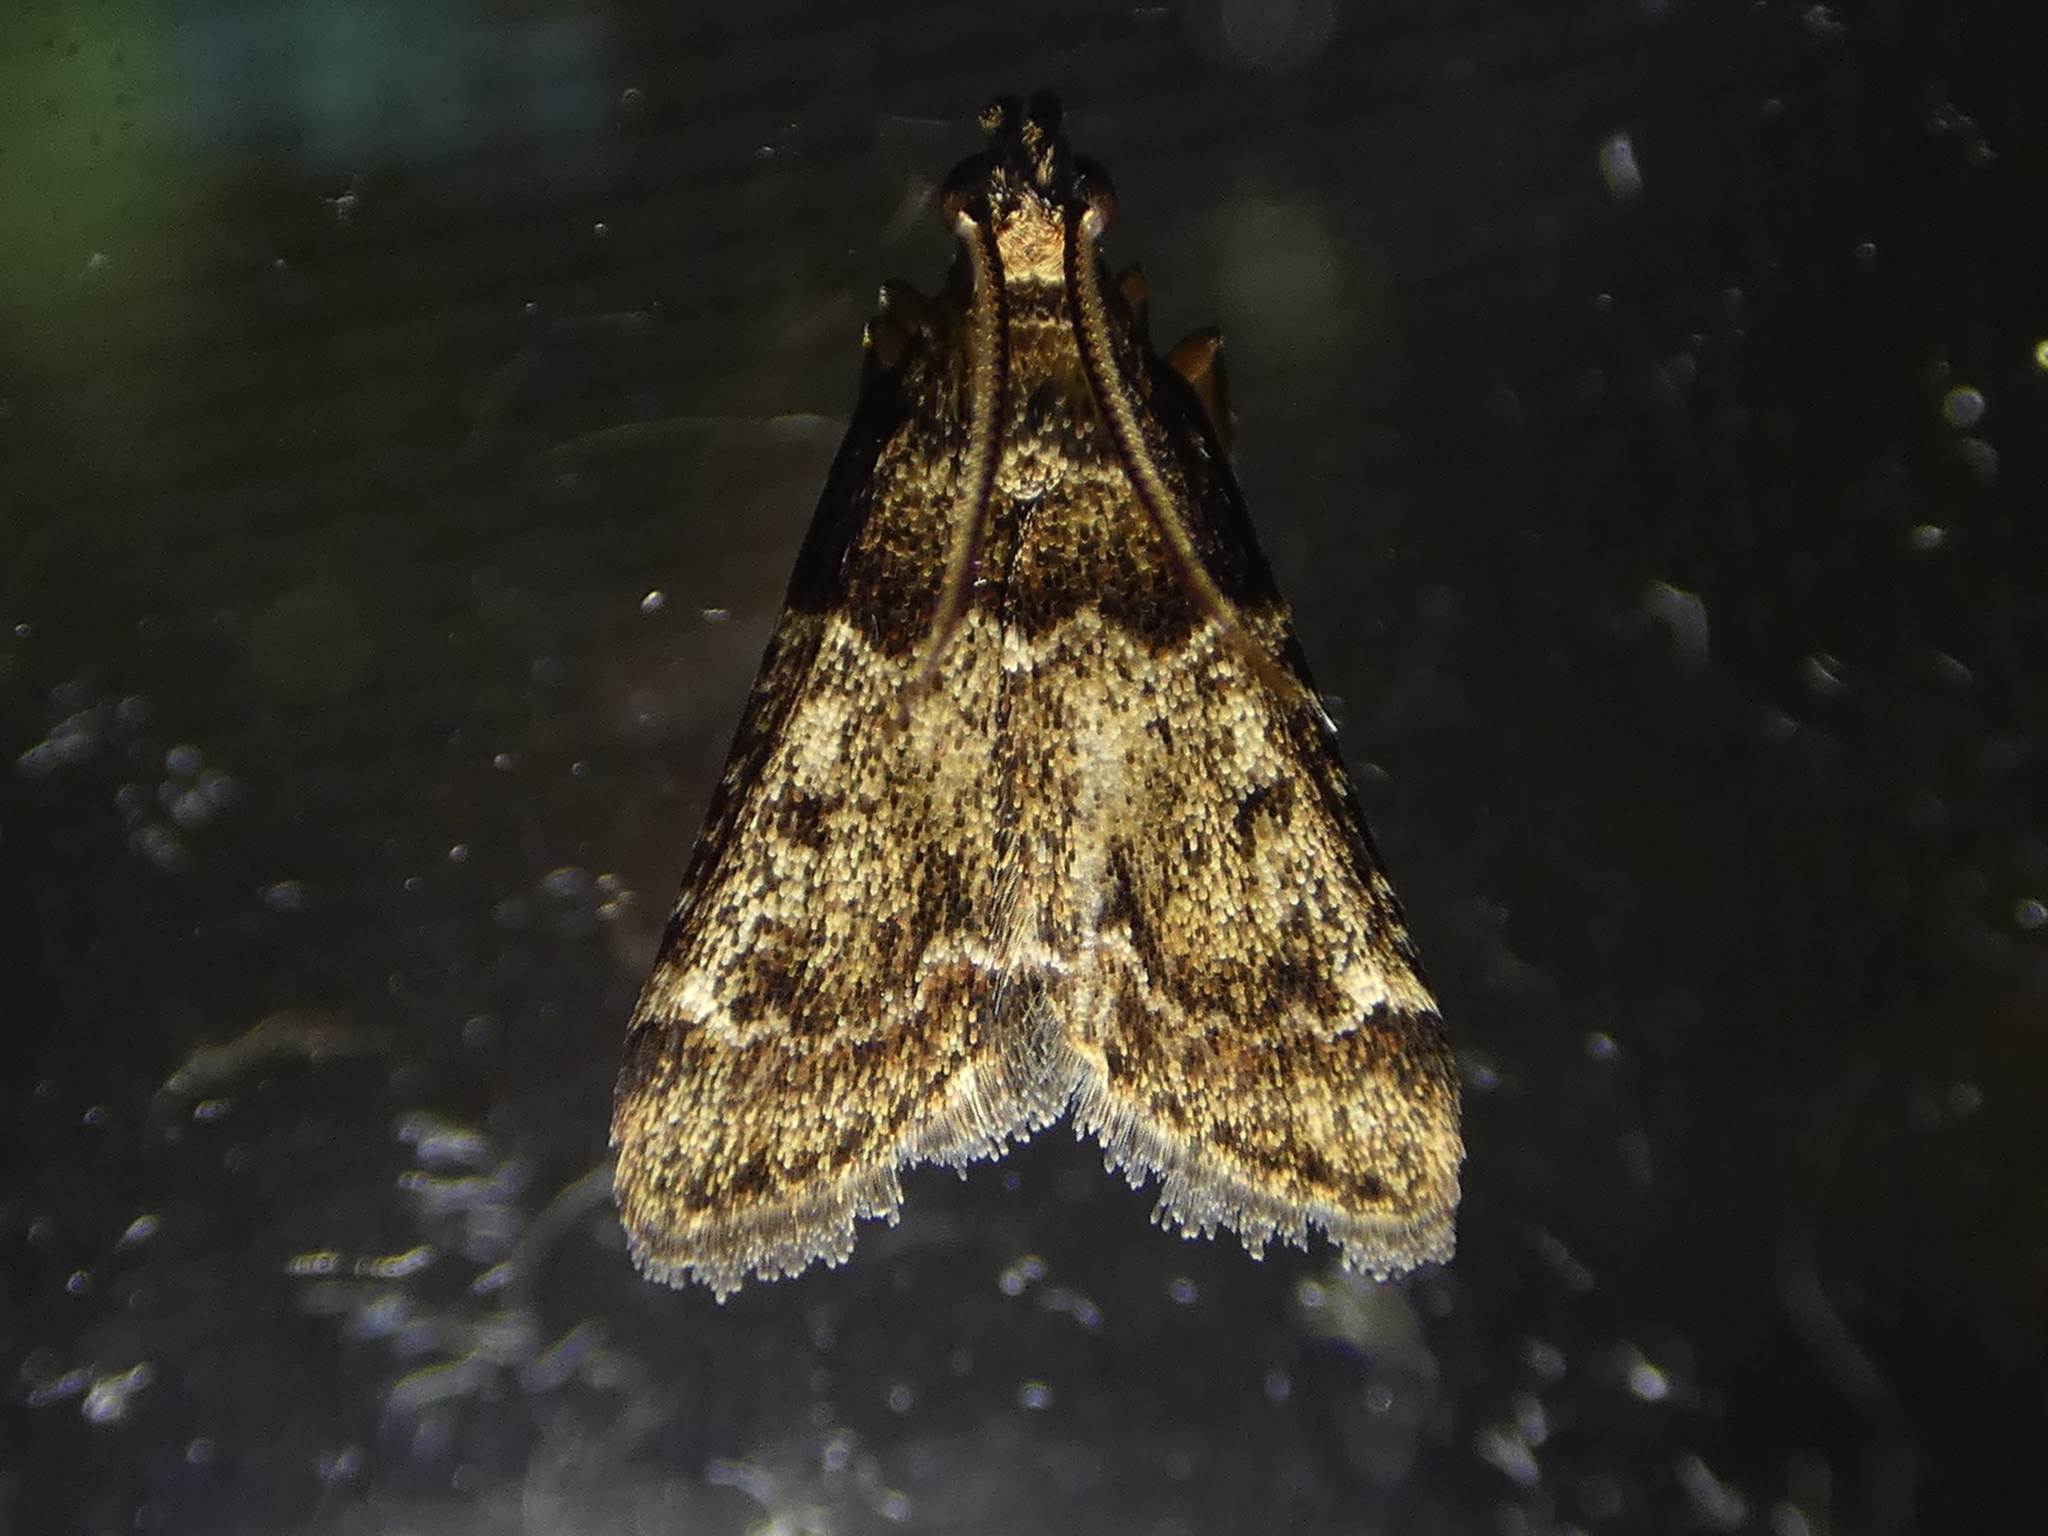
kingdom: Animalia
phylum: Arthropoda
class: Insecta
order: Lepidoptera
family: Pyralidae
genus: Pyralis
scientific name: Pyralis manihotalis
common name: Moth
